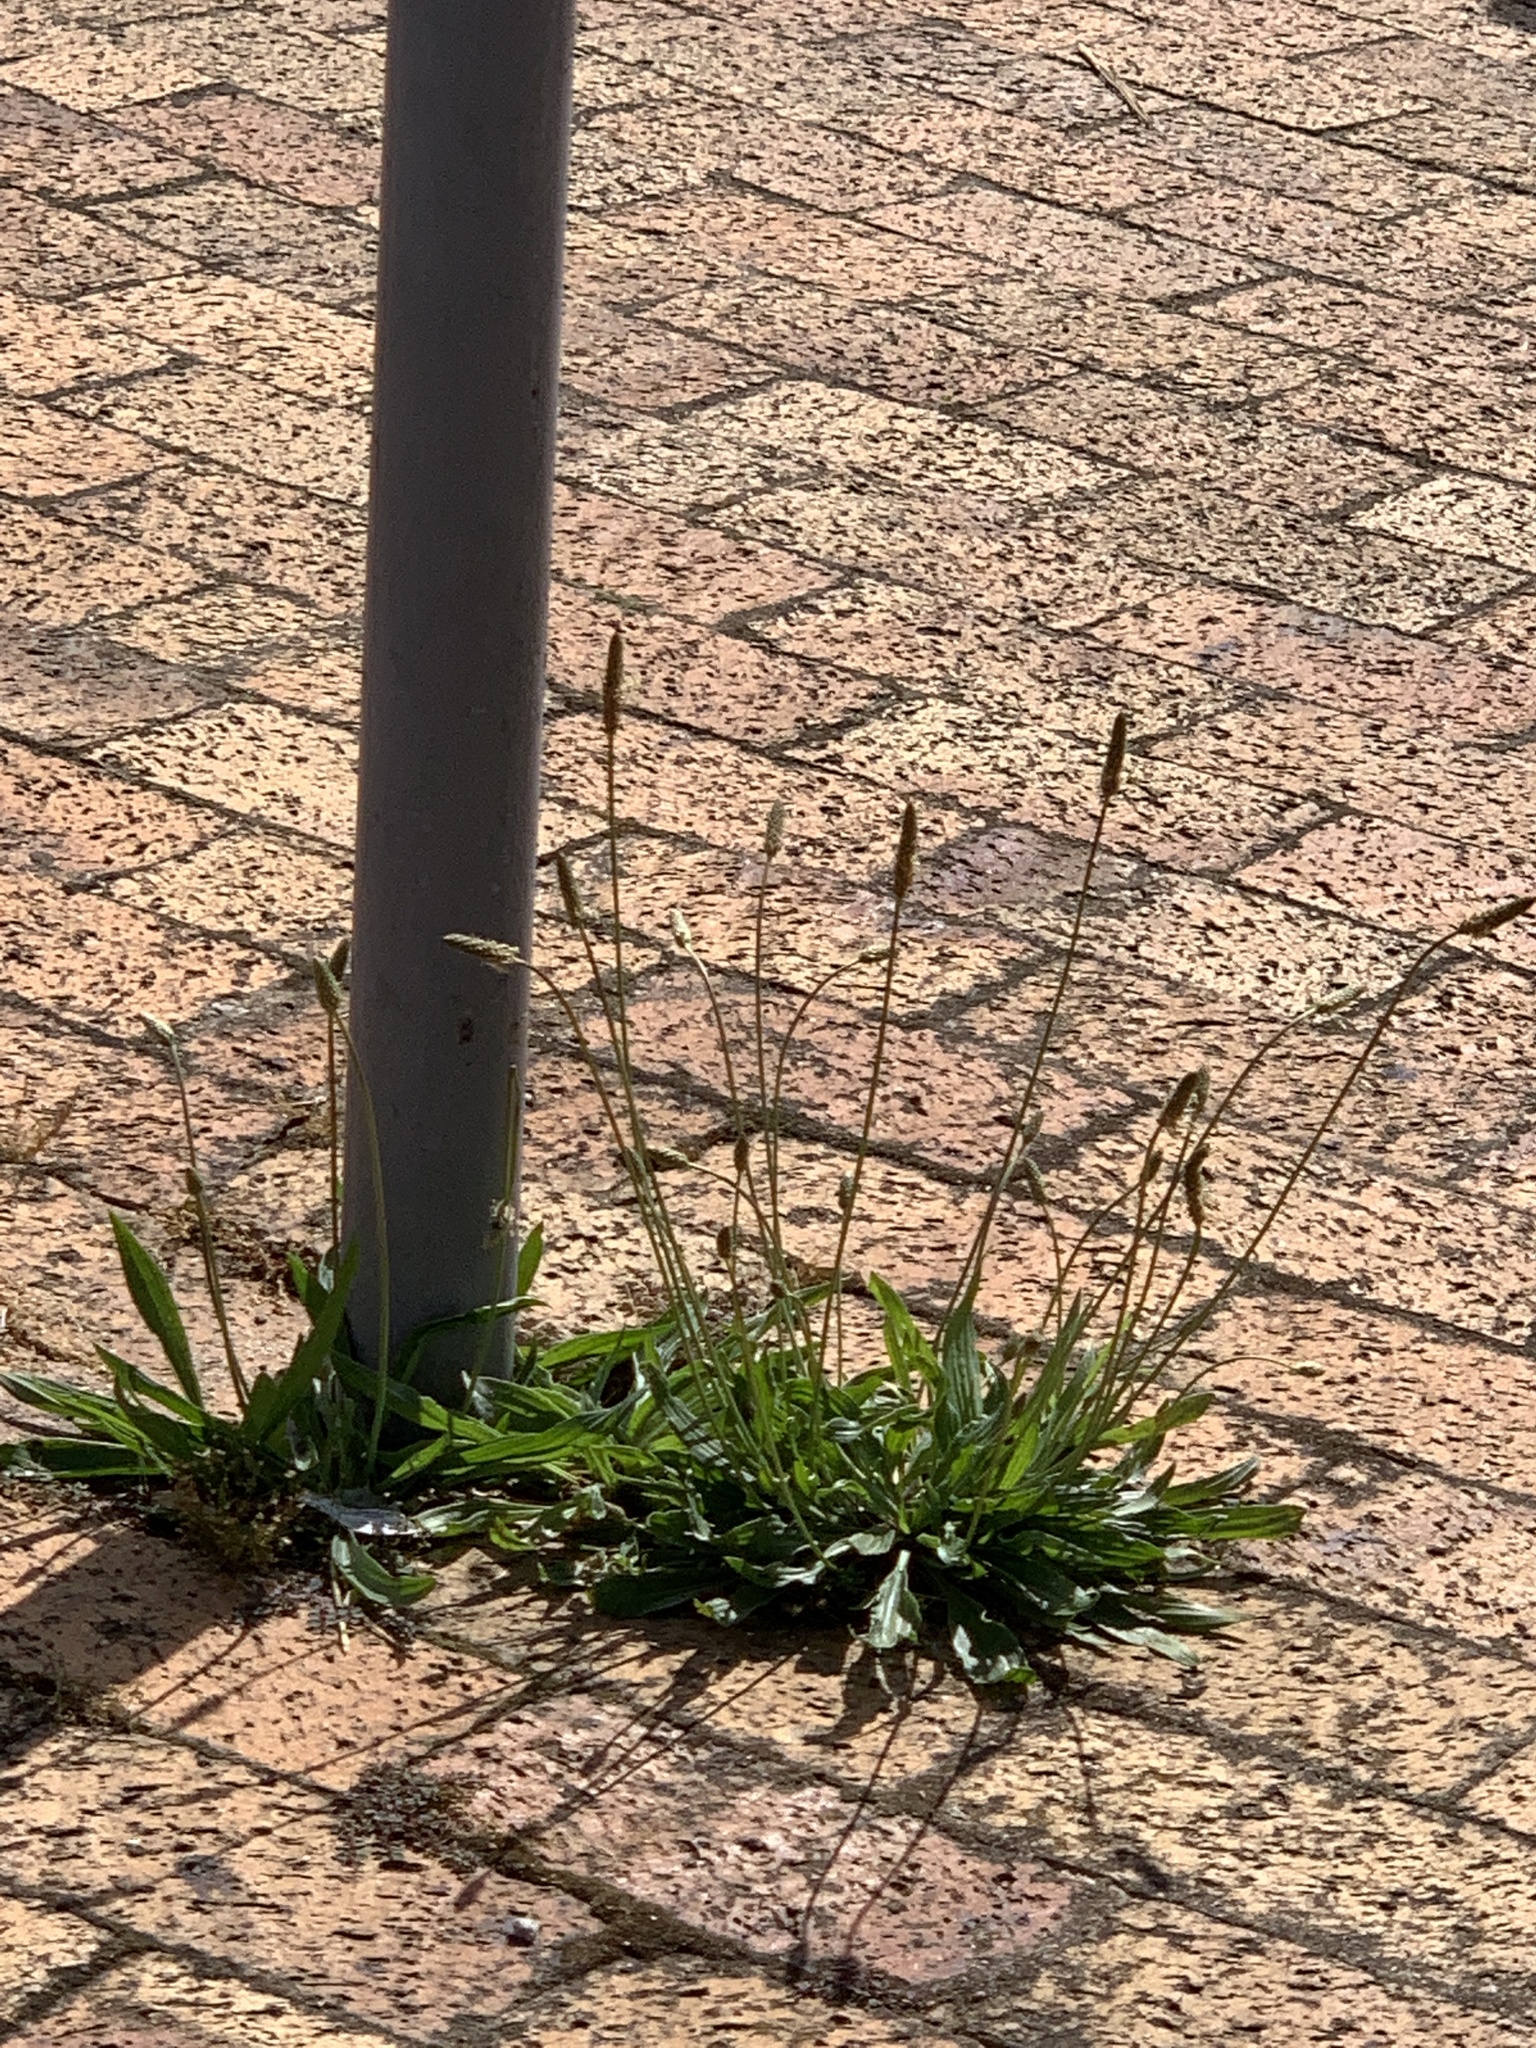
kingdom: Plantae
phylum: Tracheophyta
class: Magnoliopsida
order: Lamiales
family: Plantaginaceae
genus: Plantago
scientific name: Plantago lanceolata
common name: Ribwort plantain
